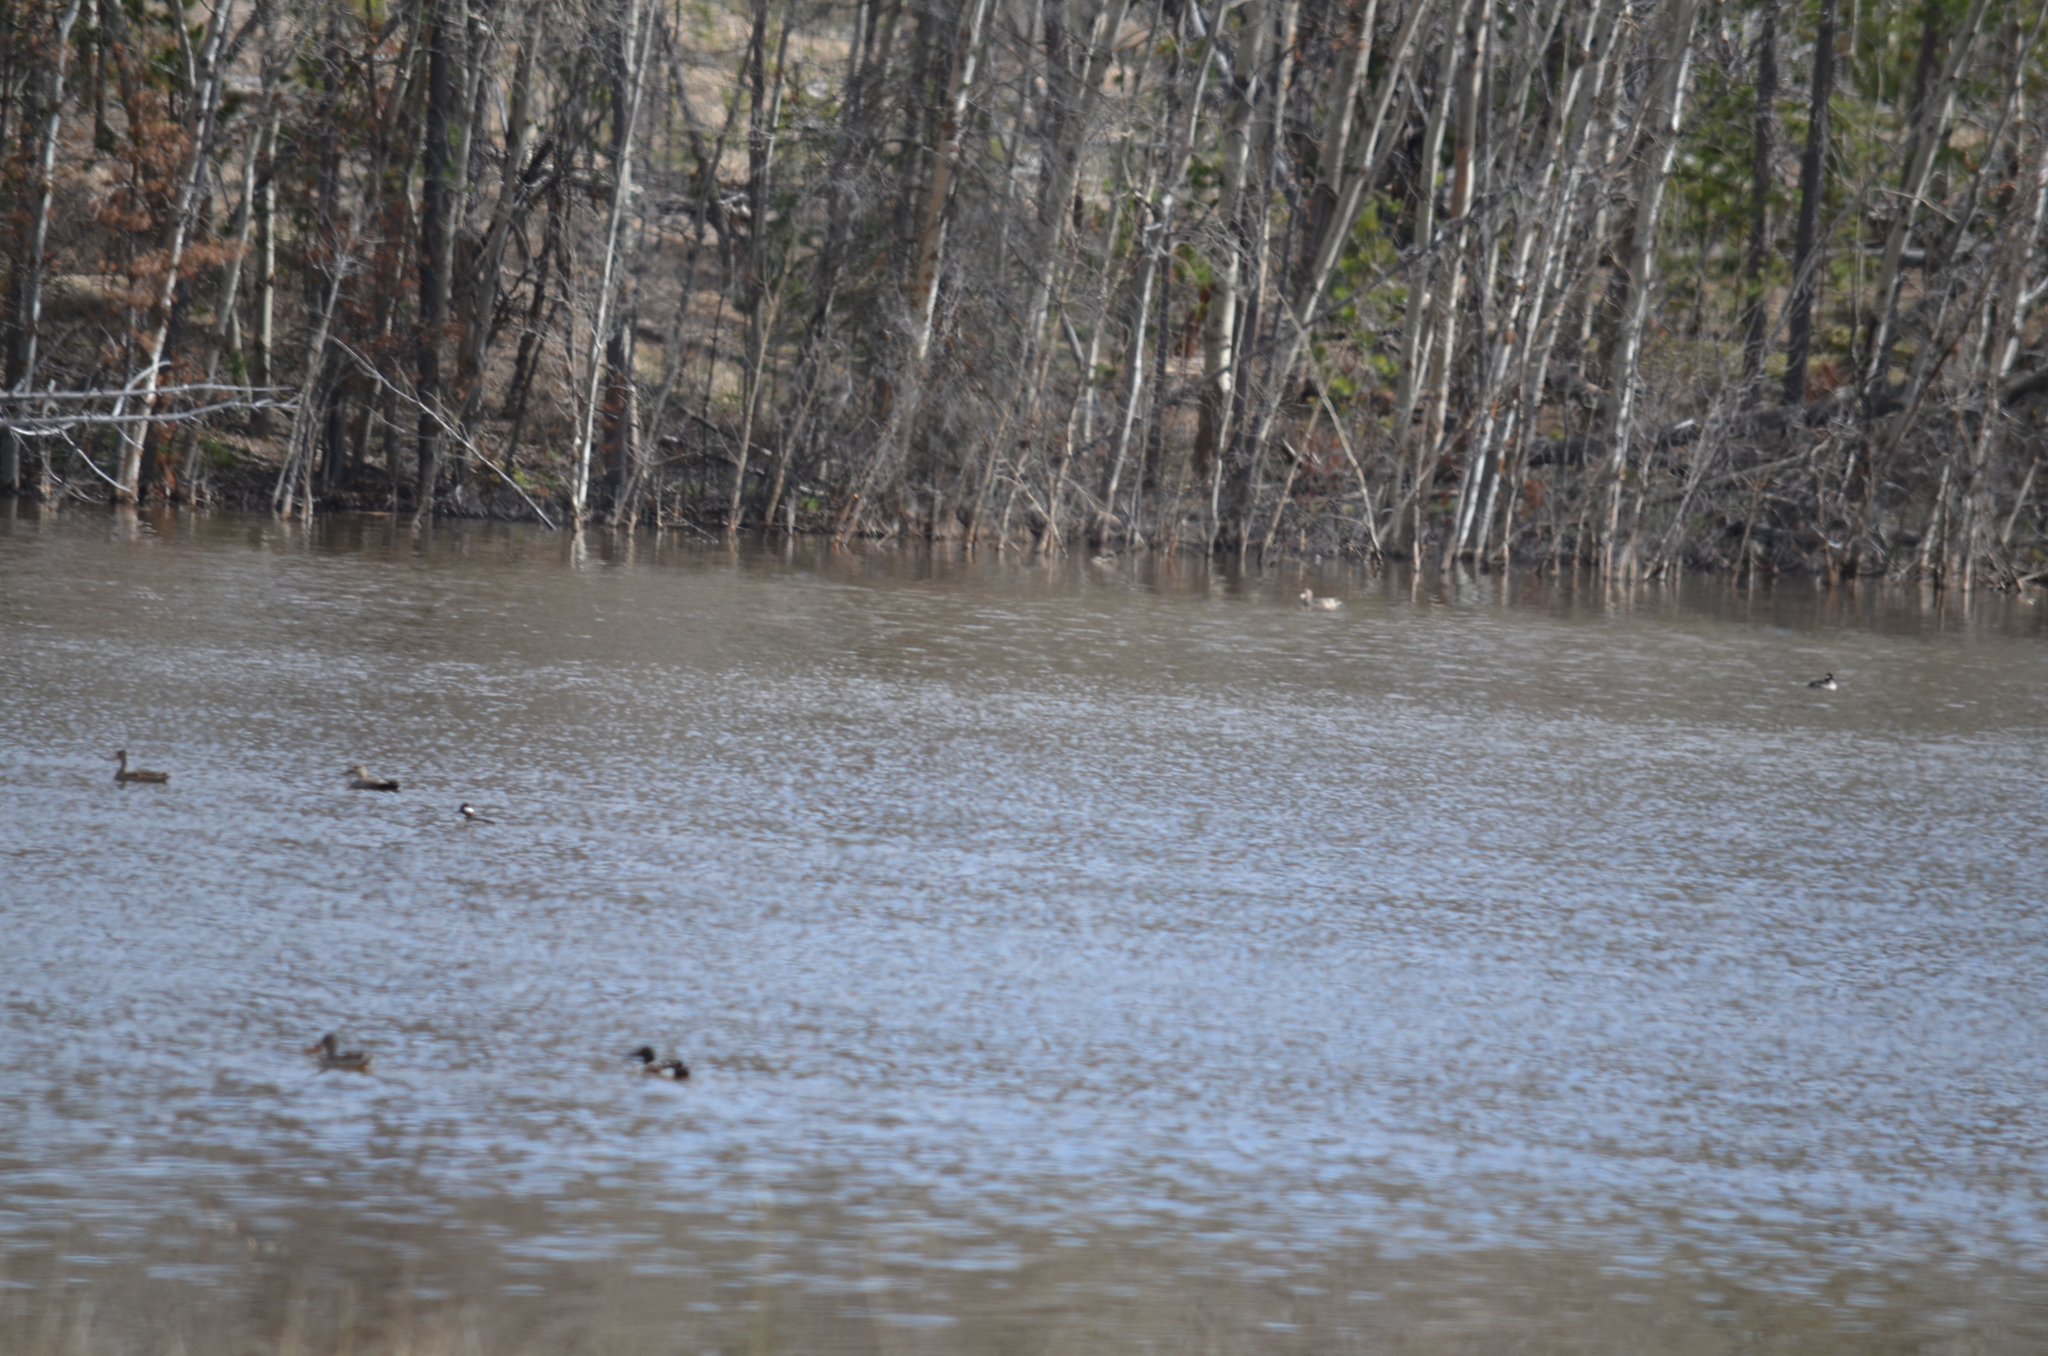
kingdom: Animalia
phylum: Chordata
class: Aves
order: Anseriformes
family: Anatidae
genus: Bucephala
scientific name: Bucephala albeola
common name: Bufflehead
